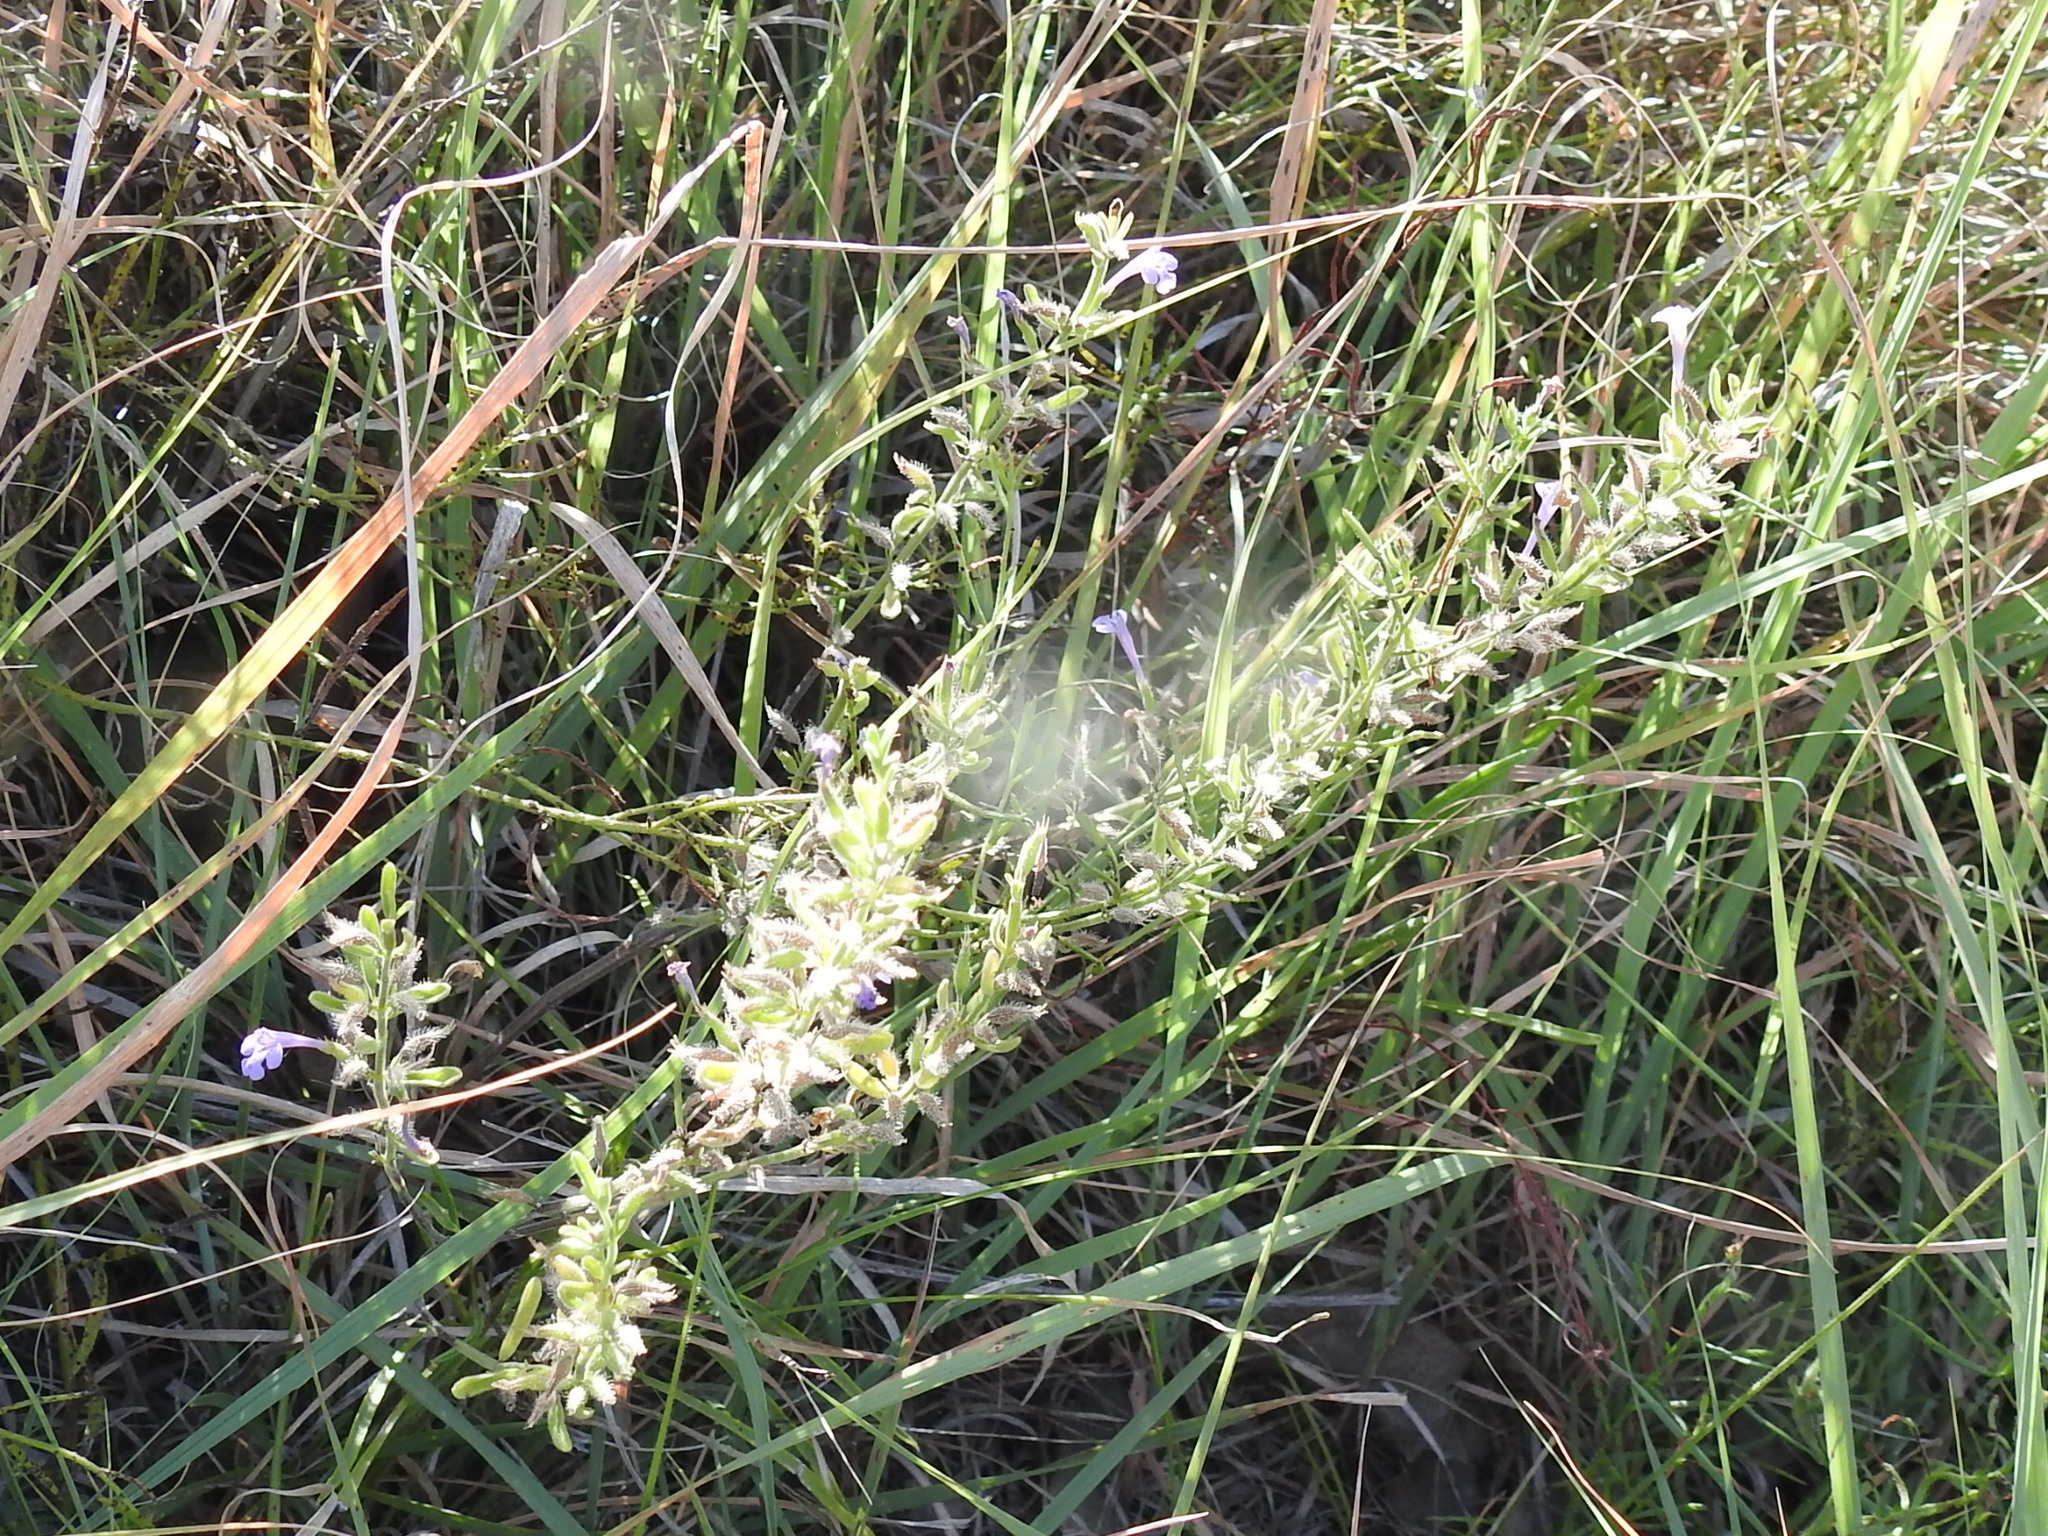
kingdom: Plantae
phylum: Tracheophyta
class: Magnoliopsida
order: Lamiales
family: Lamiaceae
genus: Hedeoma
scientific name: Hedeoma reverchonii
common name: Reverchon's false penny-royal
